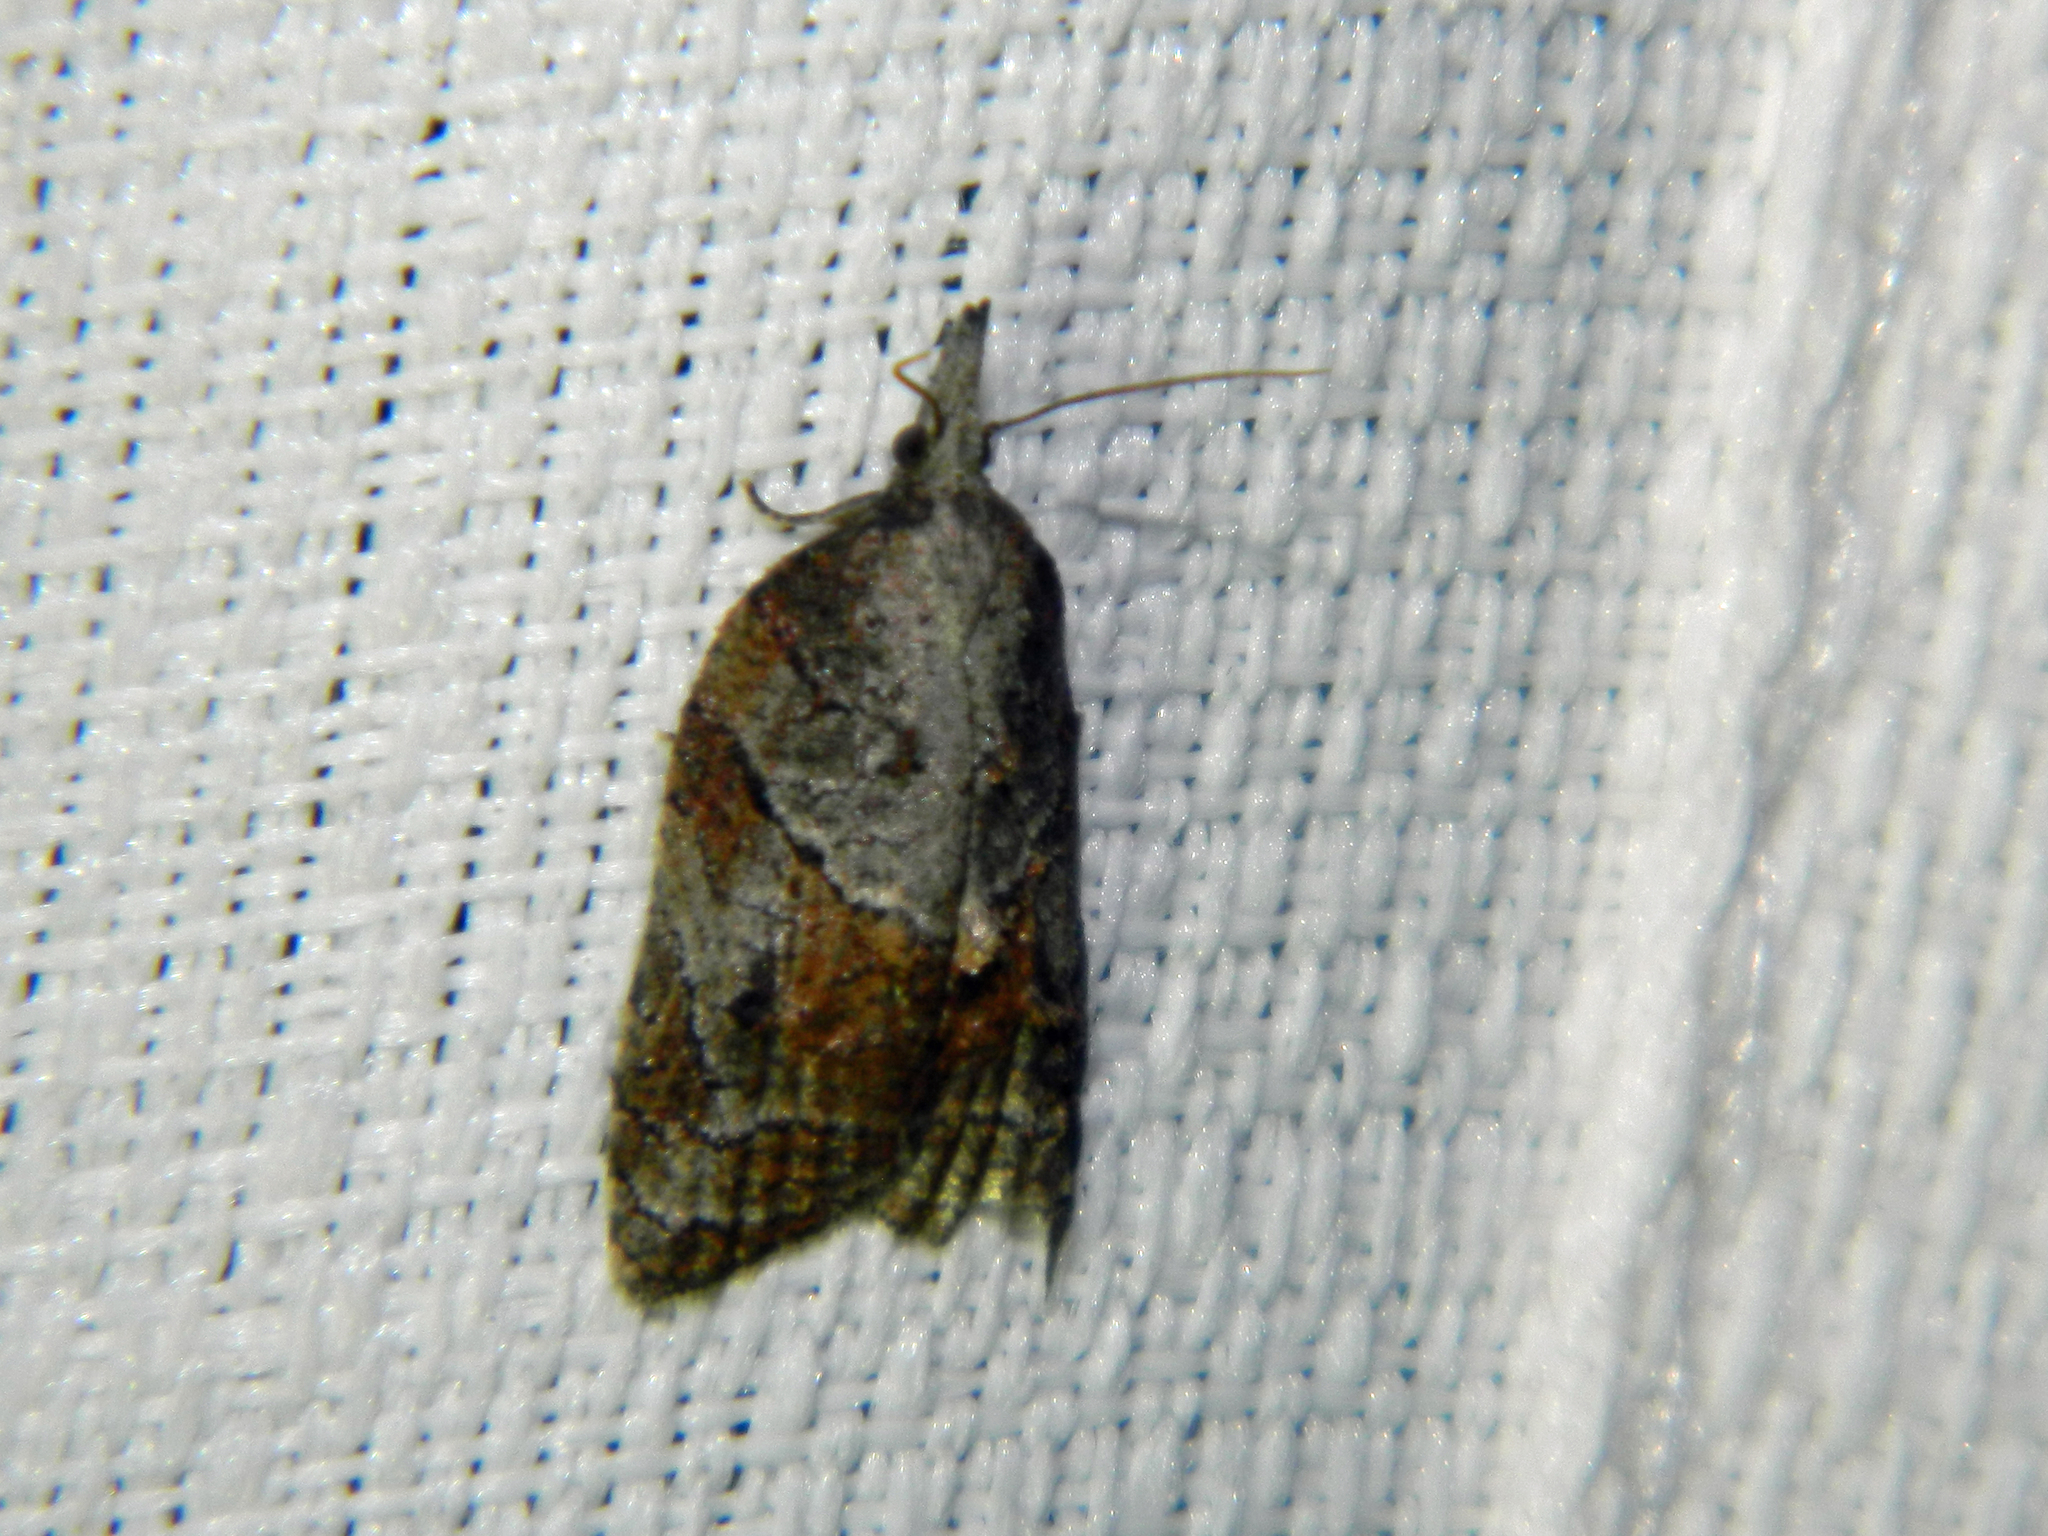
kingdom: Animalia
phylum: Arthropoda
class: Insecta
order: Lepidoptera
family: Tortricidae
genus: Platynota
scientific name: Platynota idaeusalis
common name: Tufted apple bud moth
